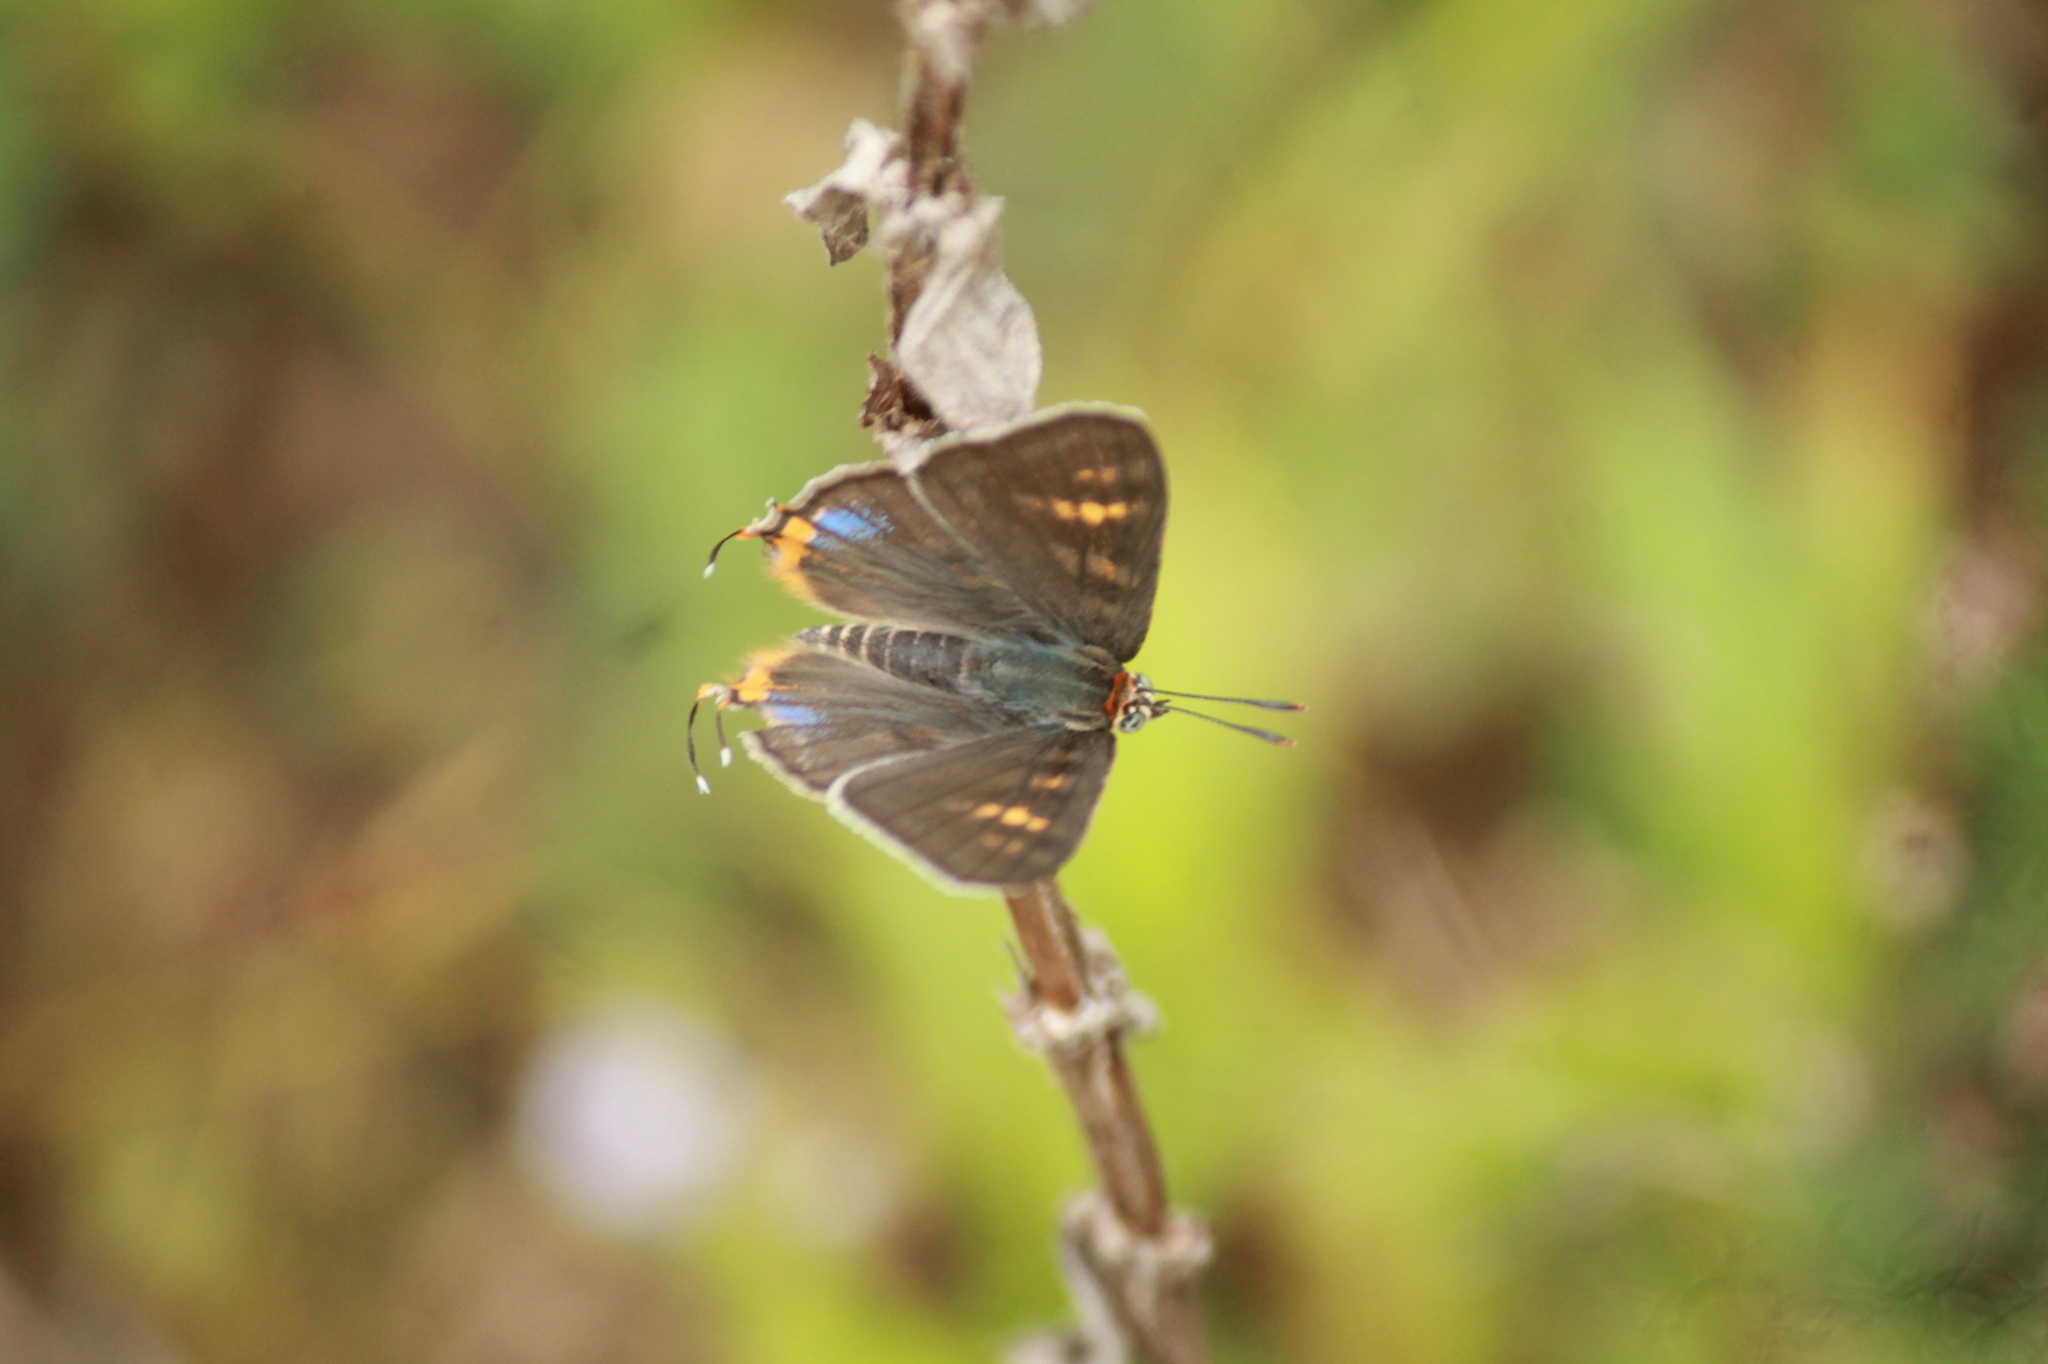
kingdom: Animalia
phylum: Arthropoda
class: Insecta
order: Lepidoptera
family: Lycaenidae
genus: Cigaritis
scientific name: Cigaritis
